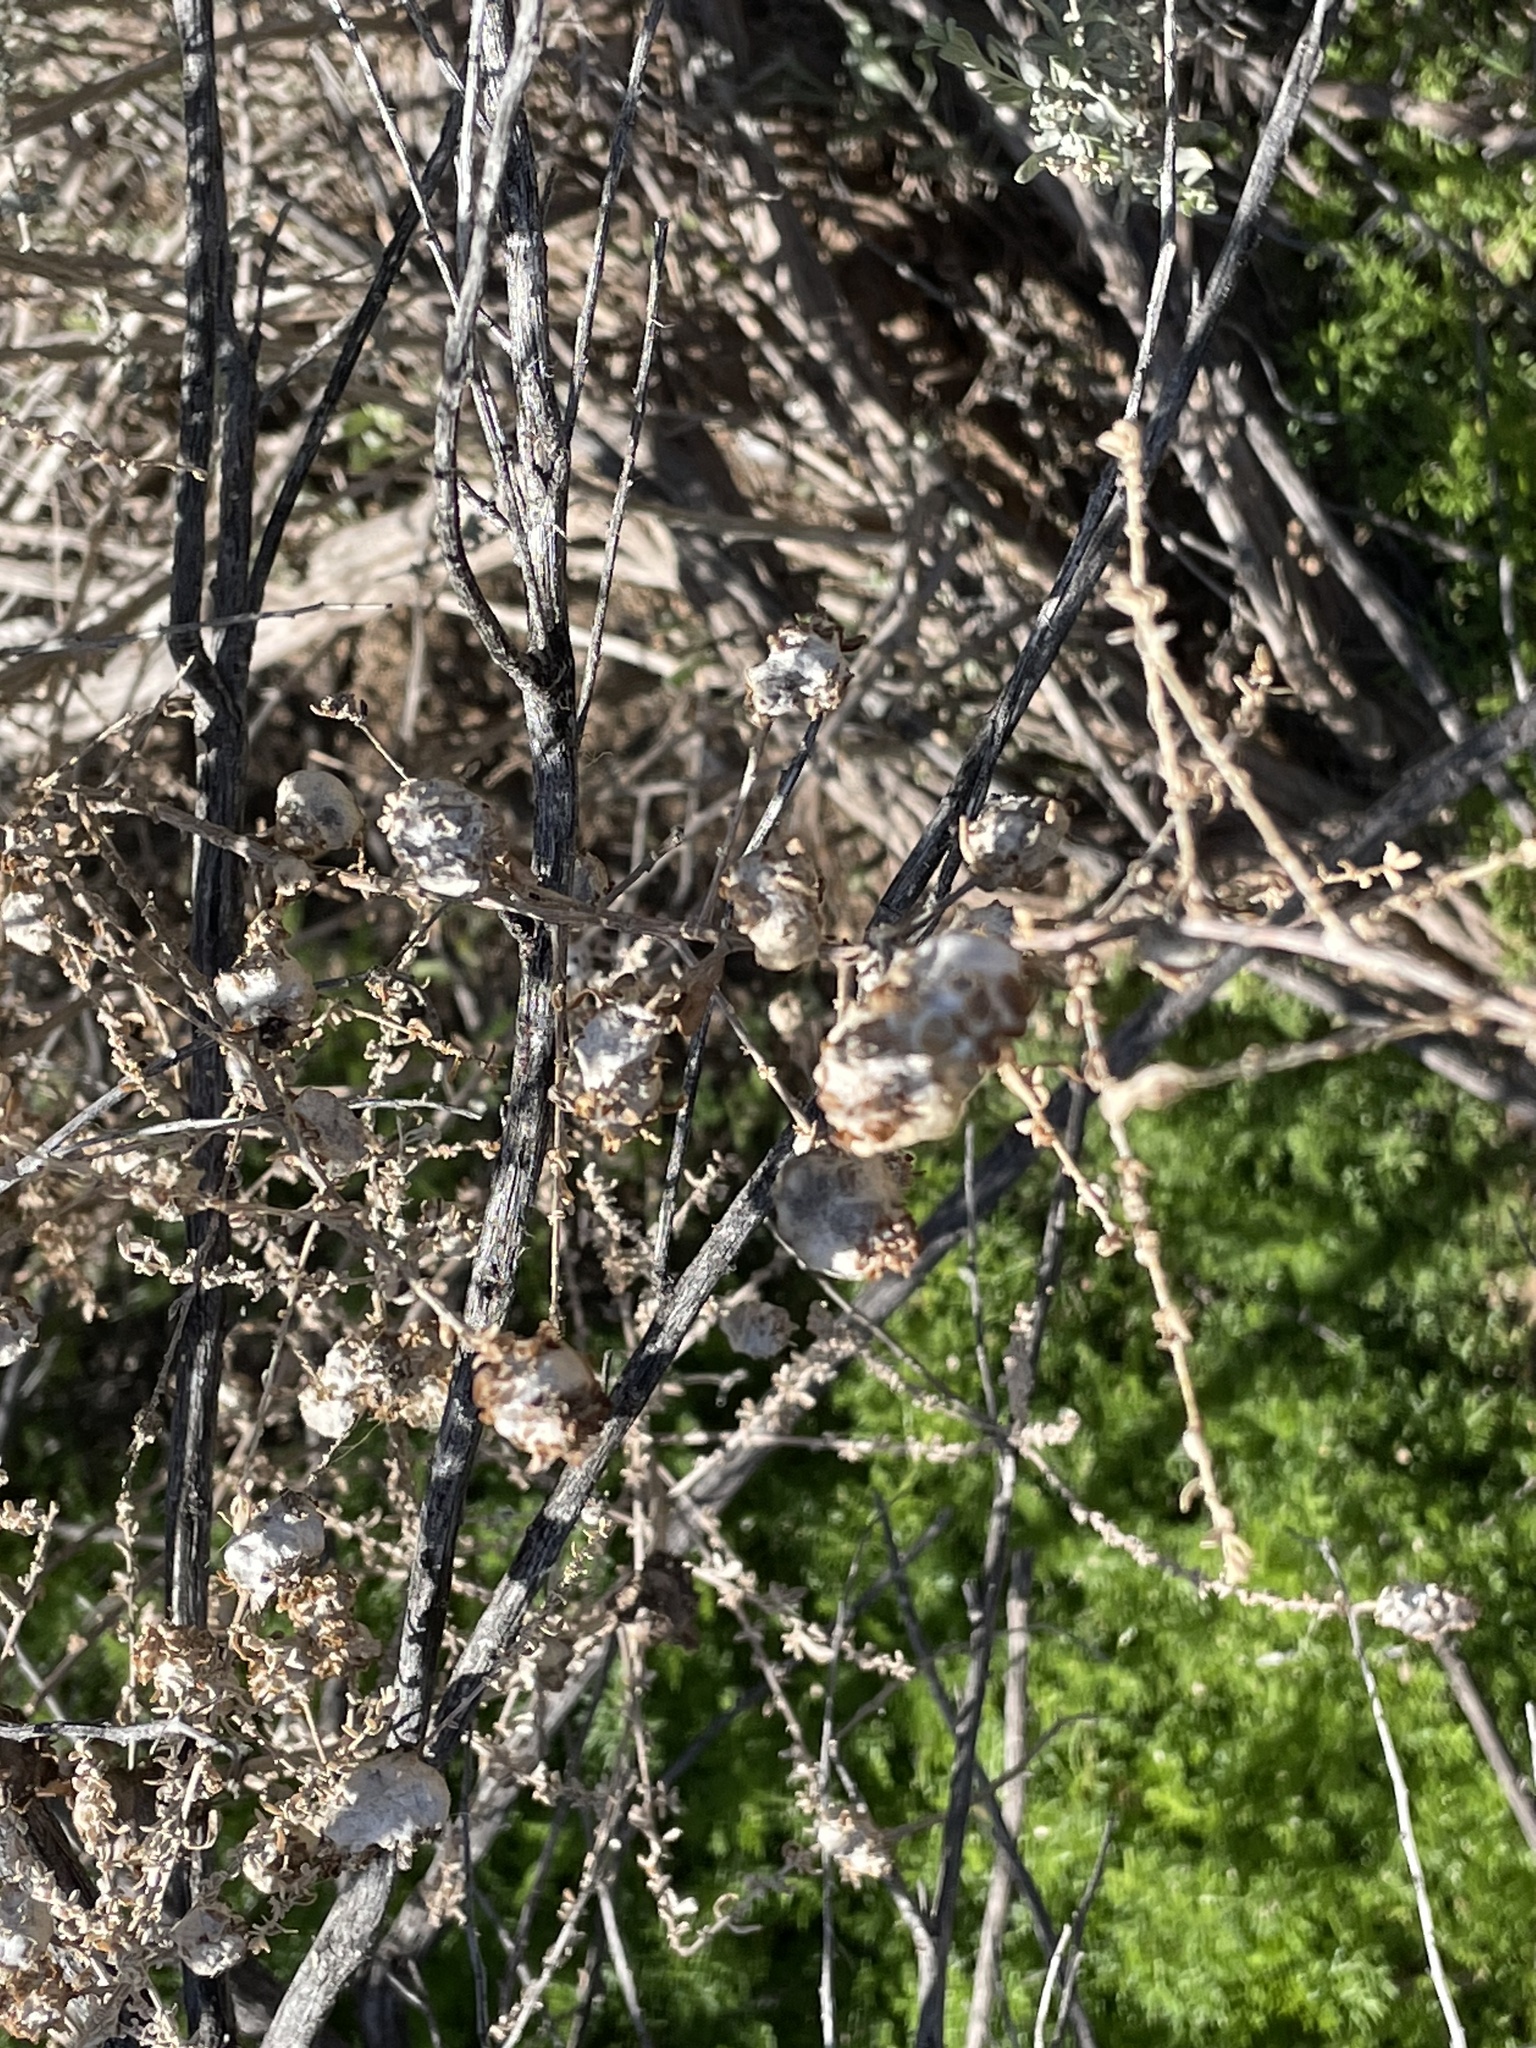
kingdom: Animalia
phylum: Arthropoda
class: Insecta
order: Diptera
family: Cecidomyiidae
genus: Asphondylia
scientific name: Asphondylia floccosa
